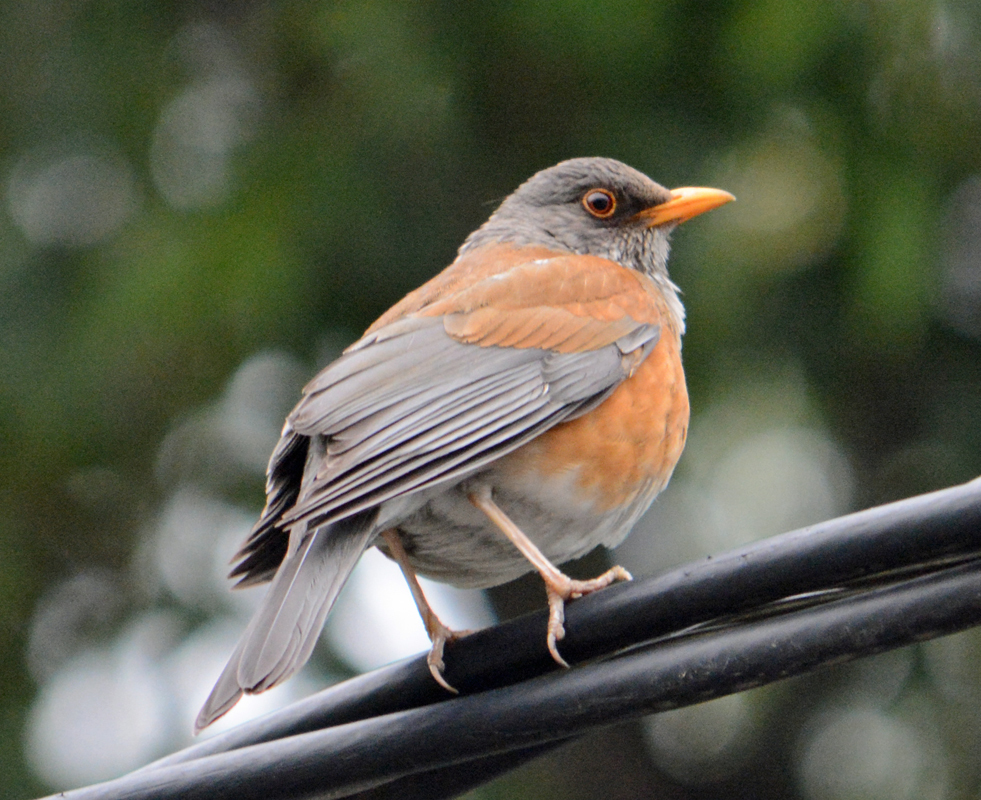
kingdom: Animalia
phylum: Chordata
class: Aves
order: Passeriformes
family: Turdidae
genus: Turdus
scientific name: Turdus rufopalliatus
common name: Rufous-backed robin
